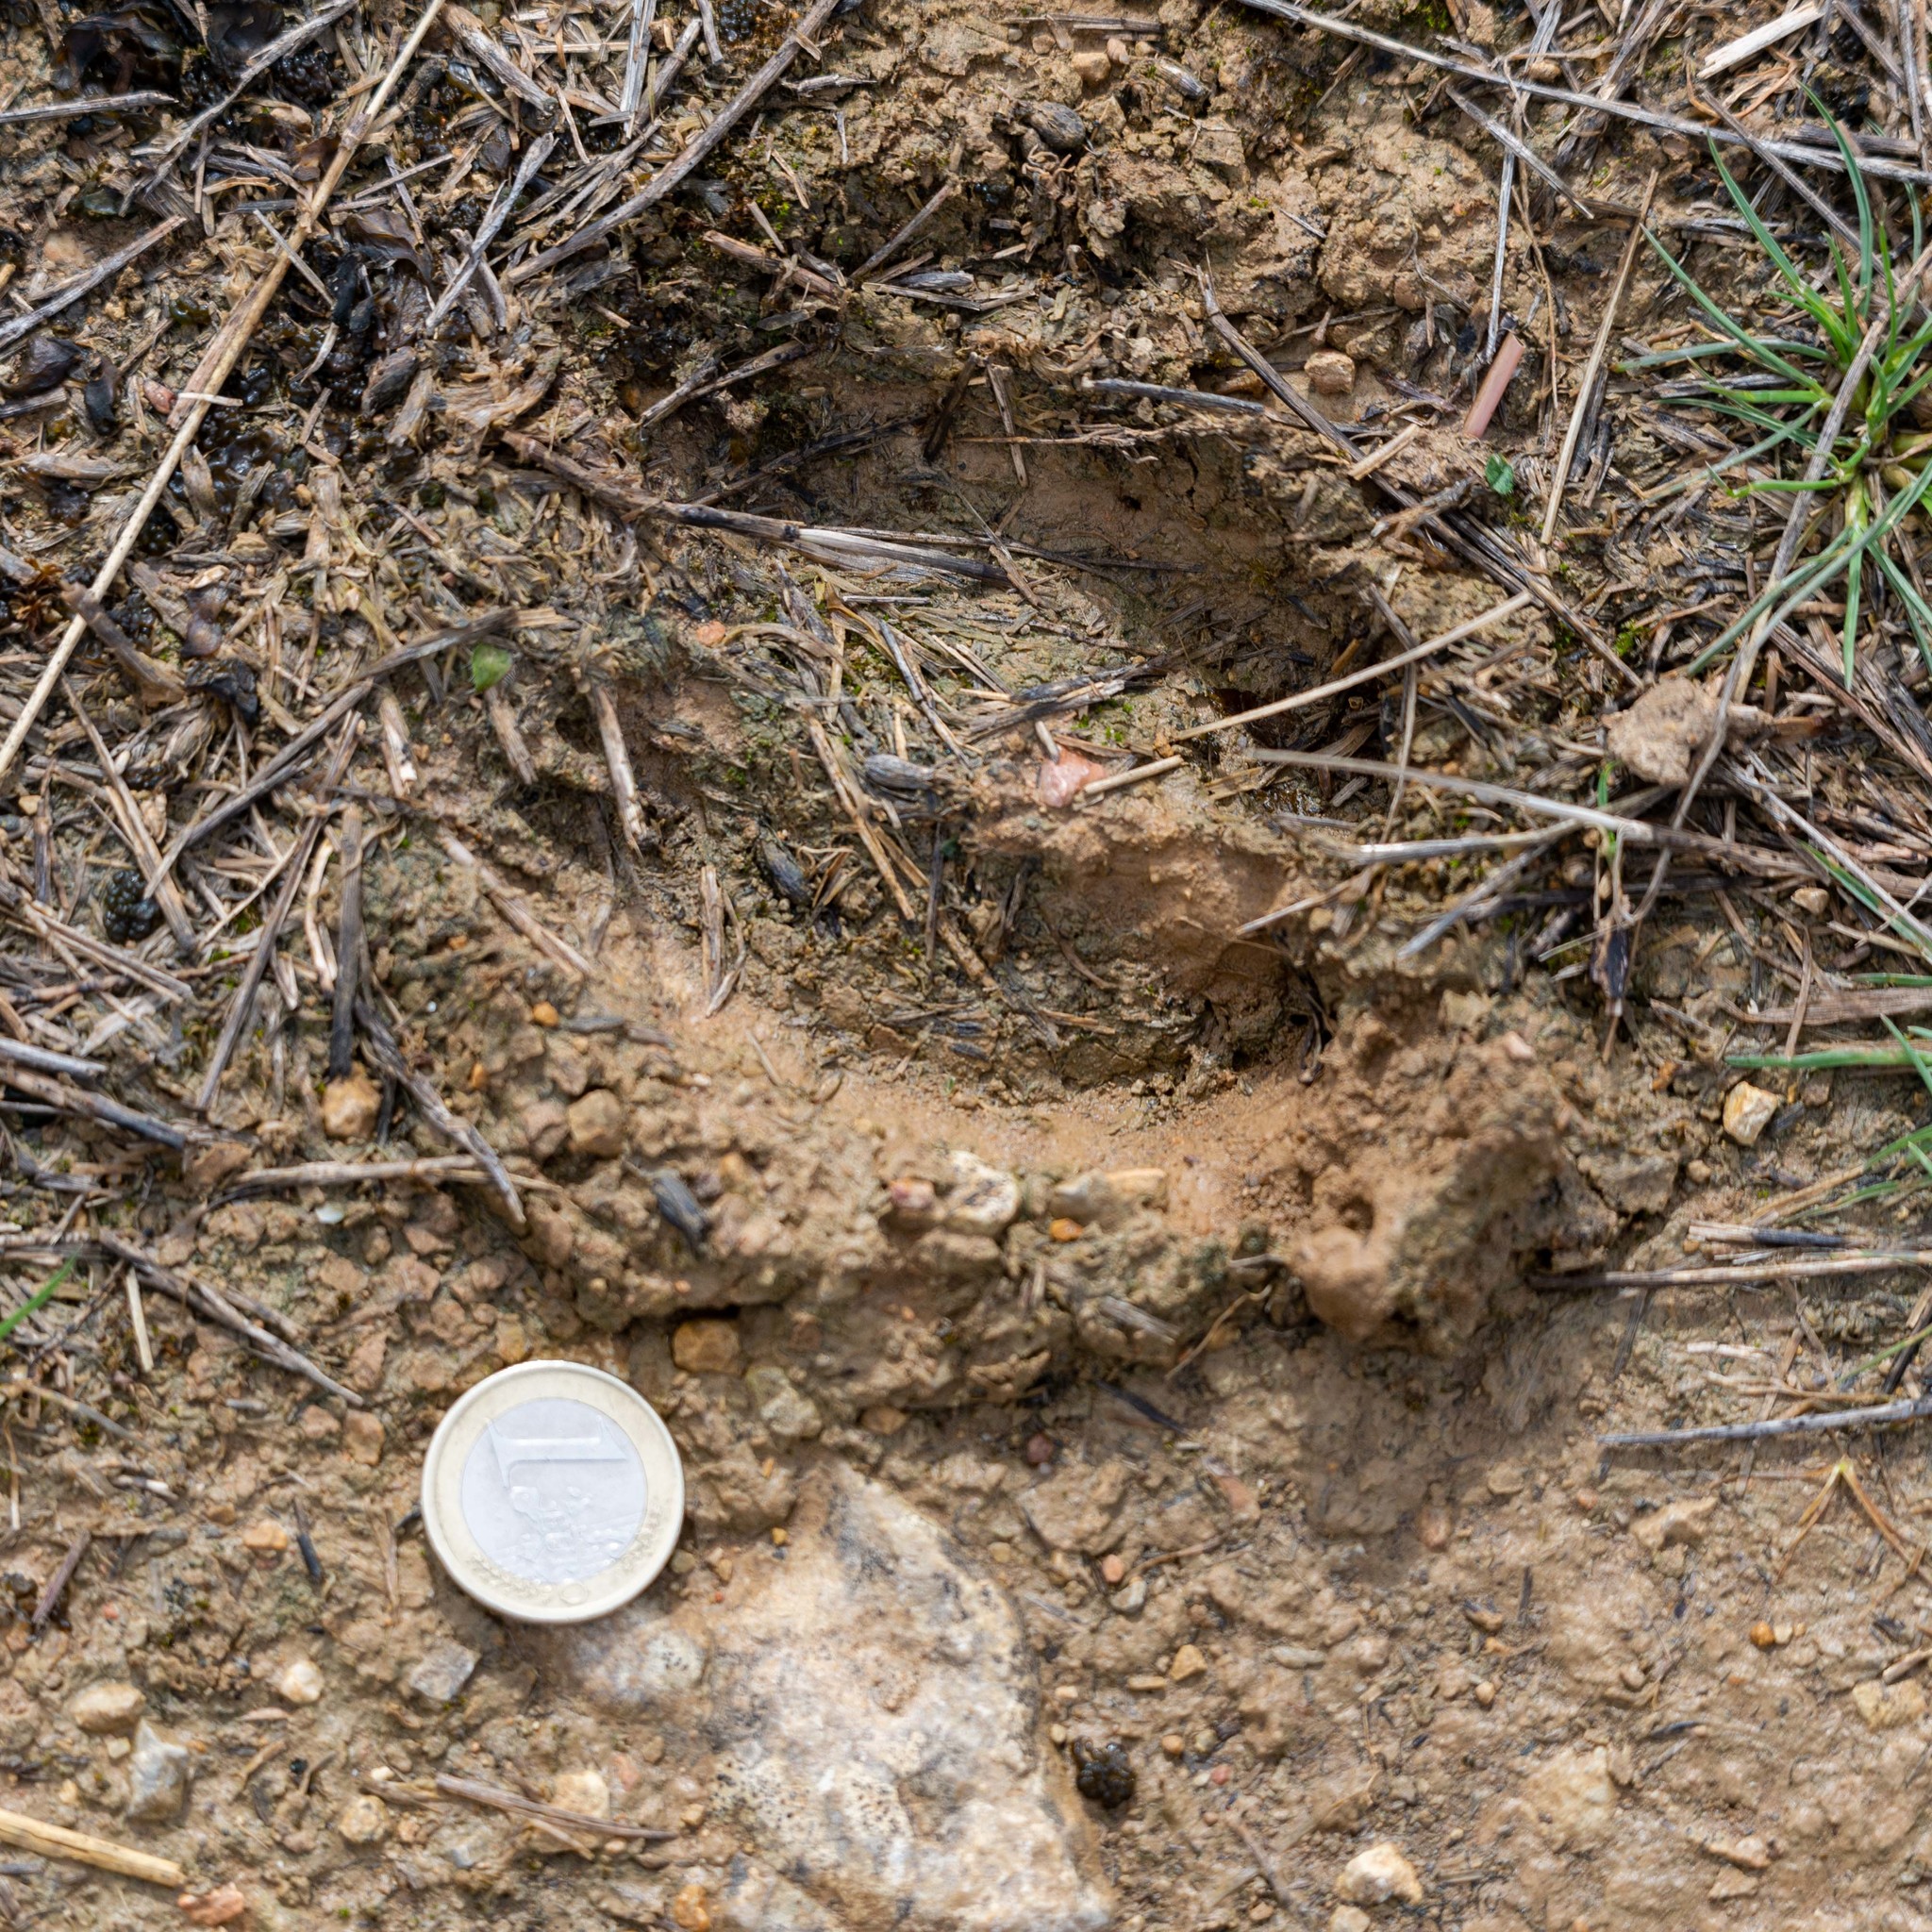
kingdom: Animalia
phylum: Chordata
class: Mammalia
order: Artiodactyla
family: Cervidae
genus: Cervus
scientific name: Cervus elaphus
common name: Red deer
